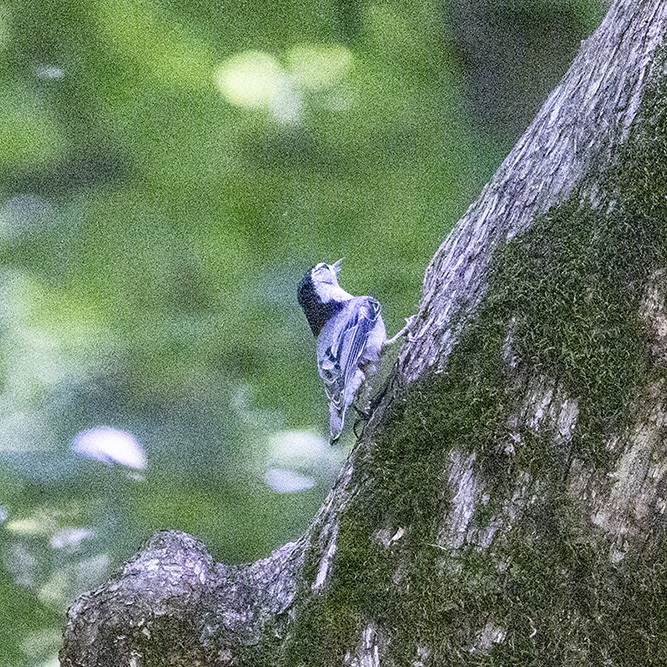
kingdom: Animalia
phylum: Chordata
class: Aves
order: Passeriformes
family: Sittidae
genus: Sitta
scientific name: Sitta carolinensis
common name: White-breasted nuthatch
